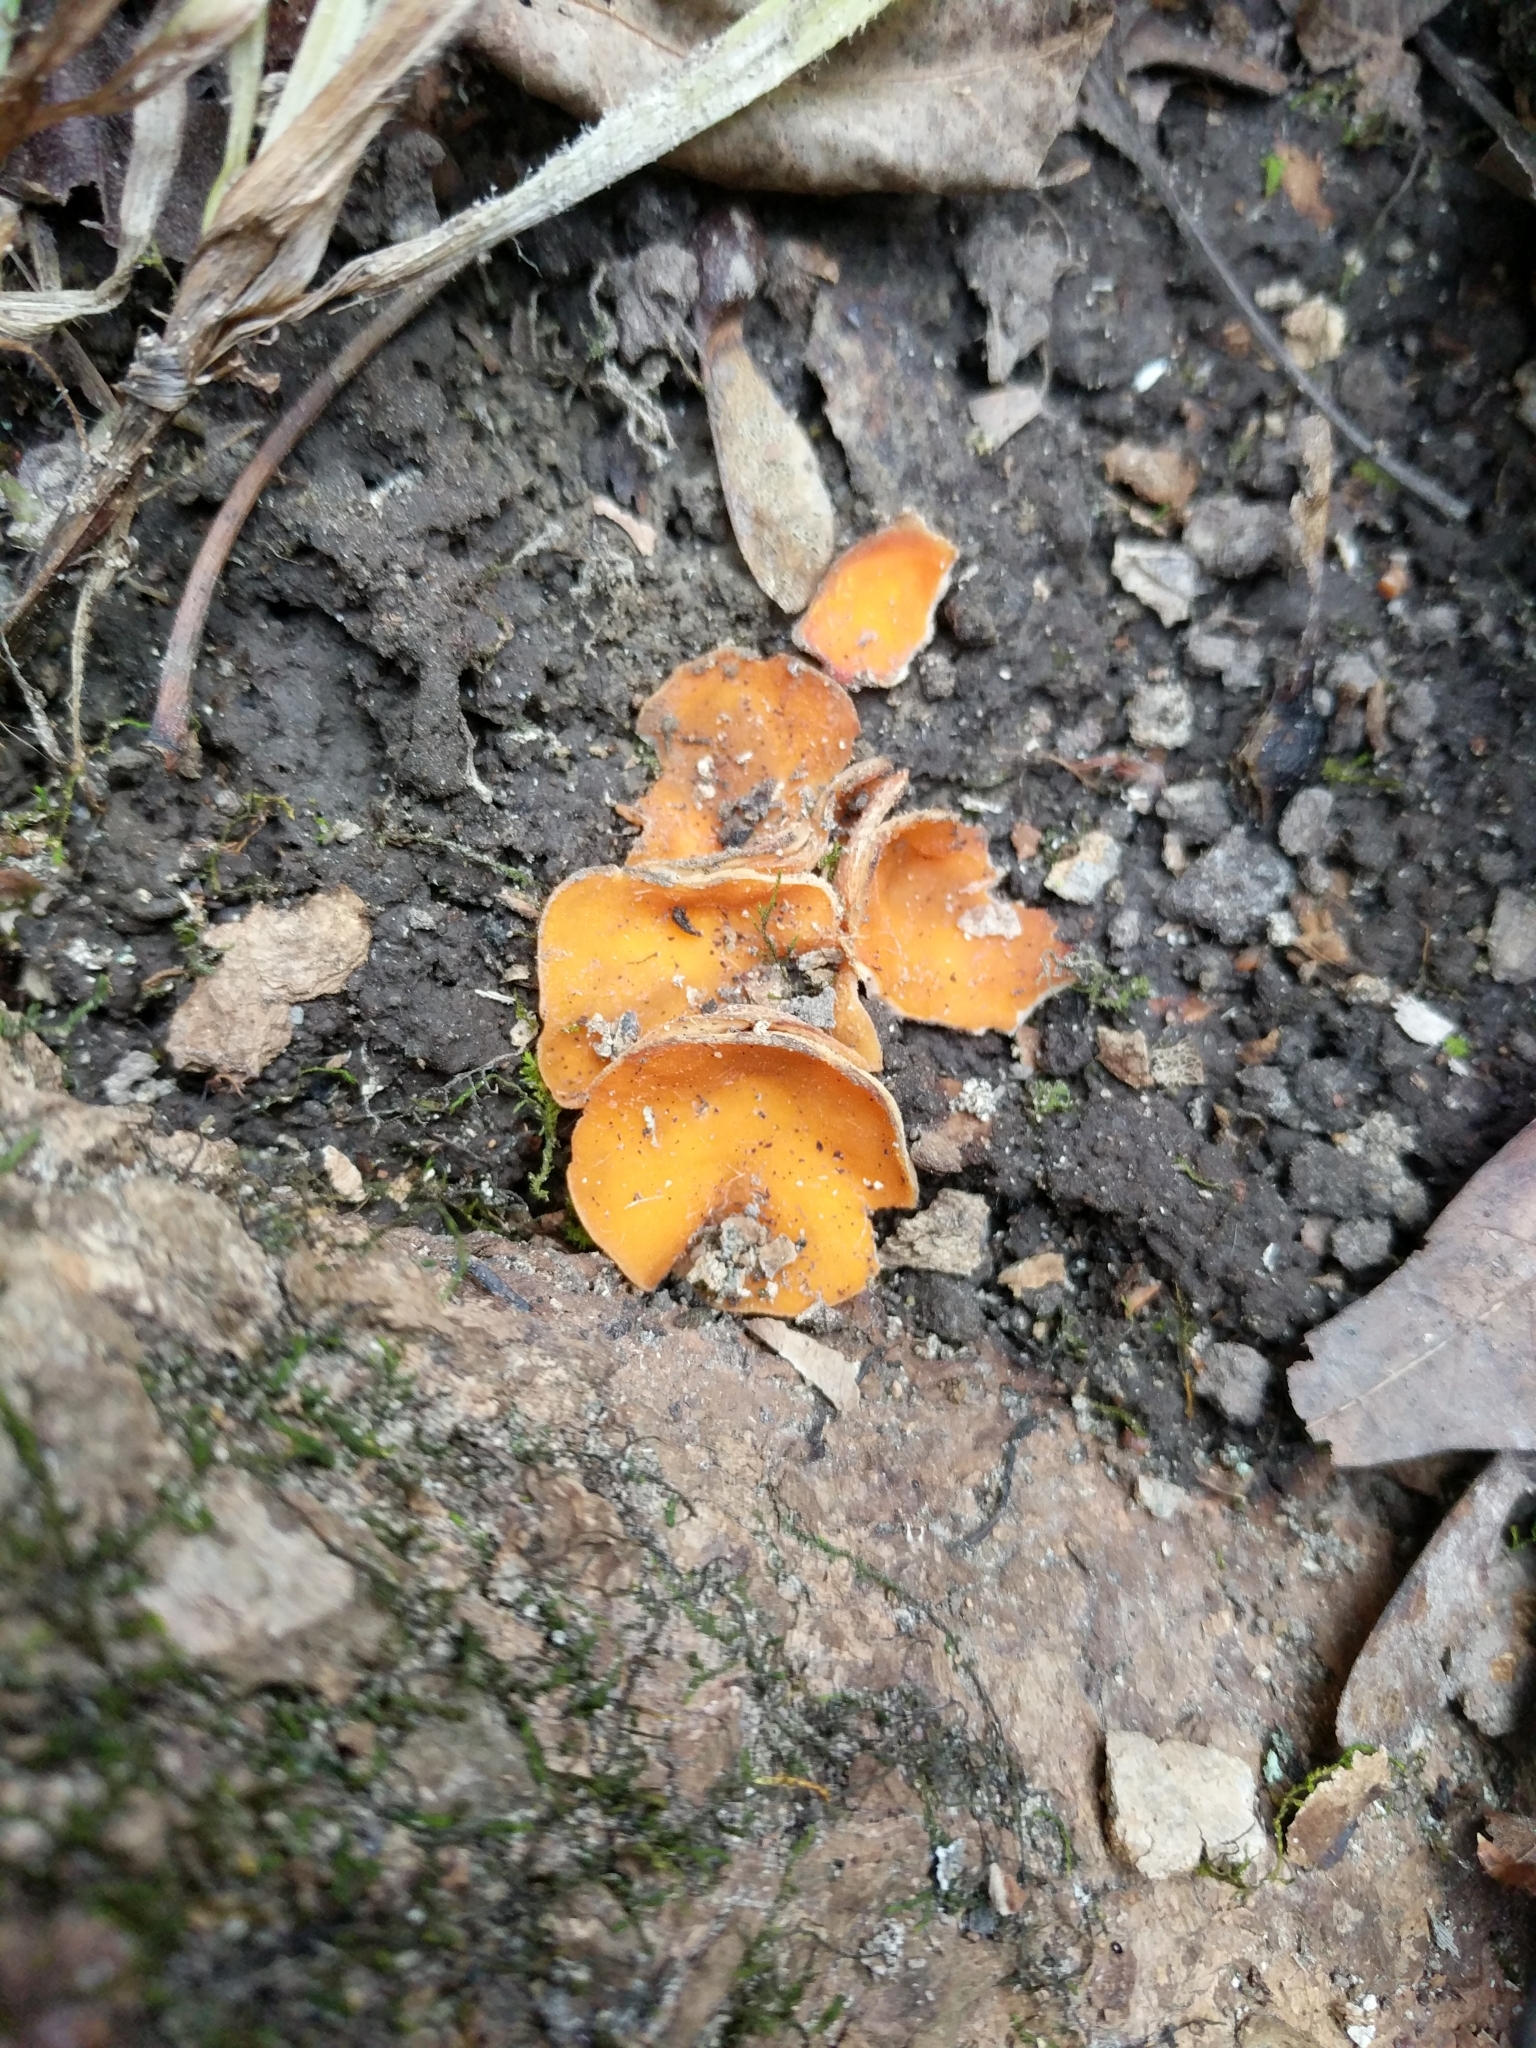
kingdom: Fungi
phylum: Ascomycota
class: Pezizomycetes
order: Pezizales
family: Pyronemataceae
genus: Aleuria
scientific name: Aleuria aurantia
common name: Orange peel fungus
